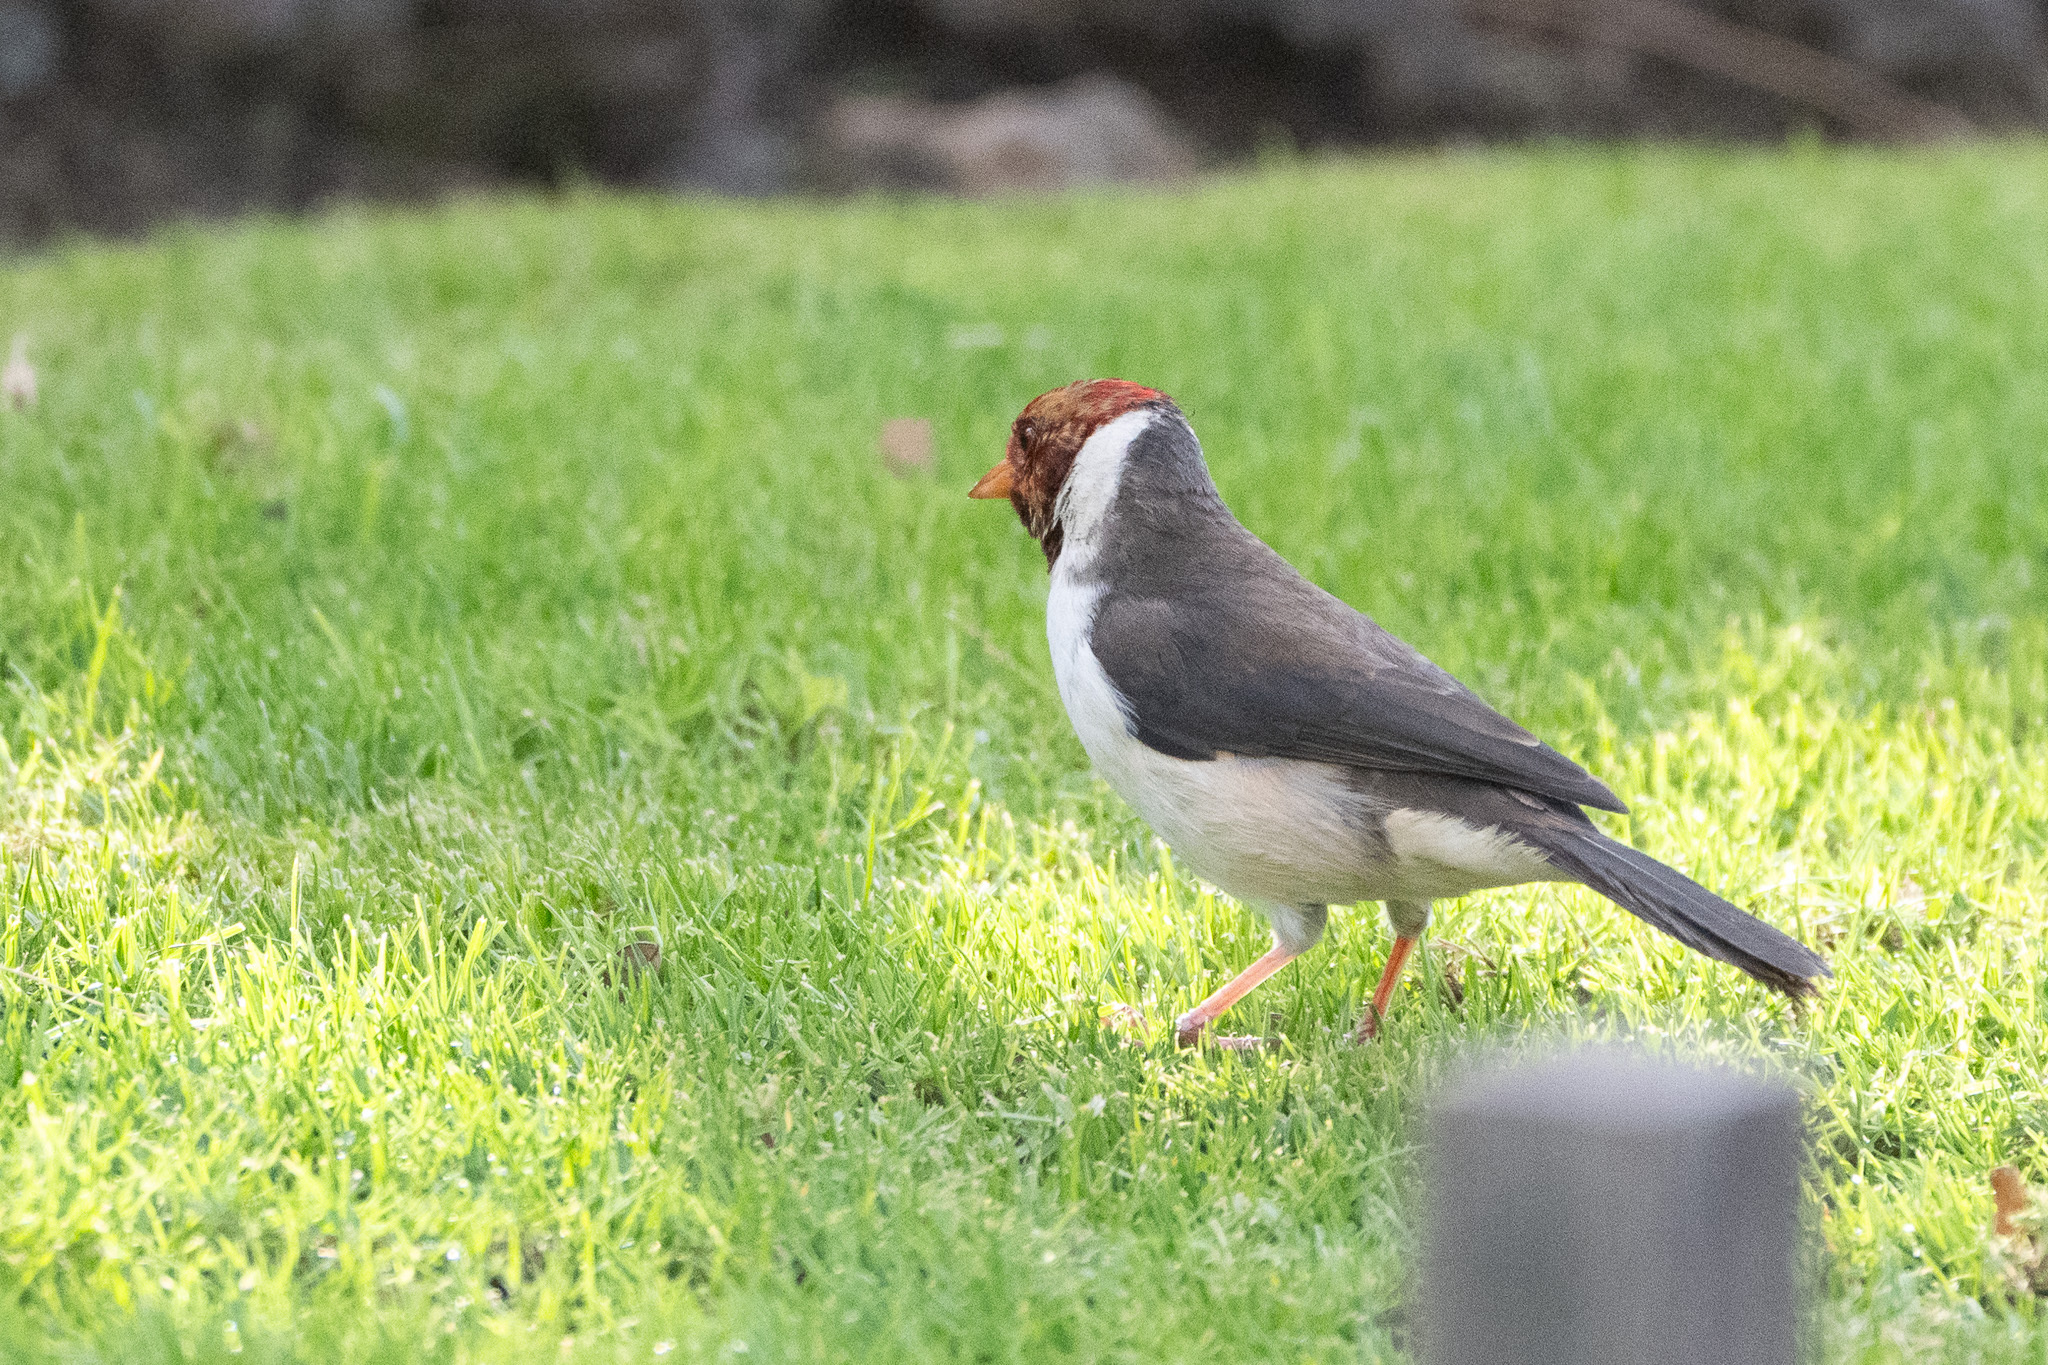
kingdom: Animalia
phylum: Chordata
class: Aves
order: Passeriformes
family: Thraupidae
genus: Paroaria
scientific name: Paroaria capitata
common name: Yellow-billed cardinal
